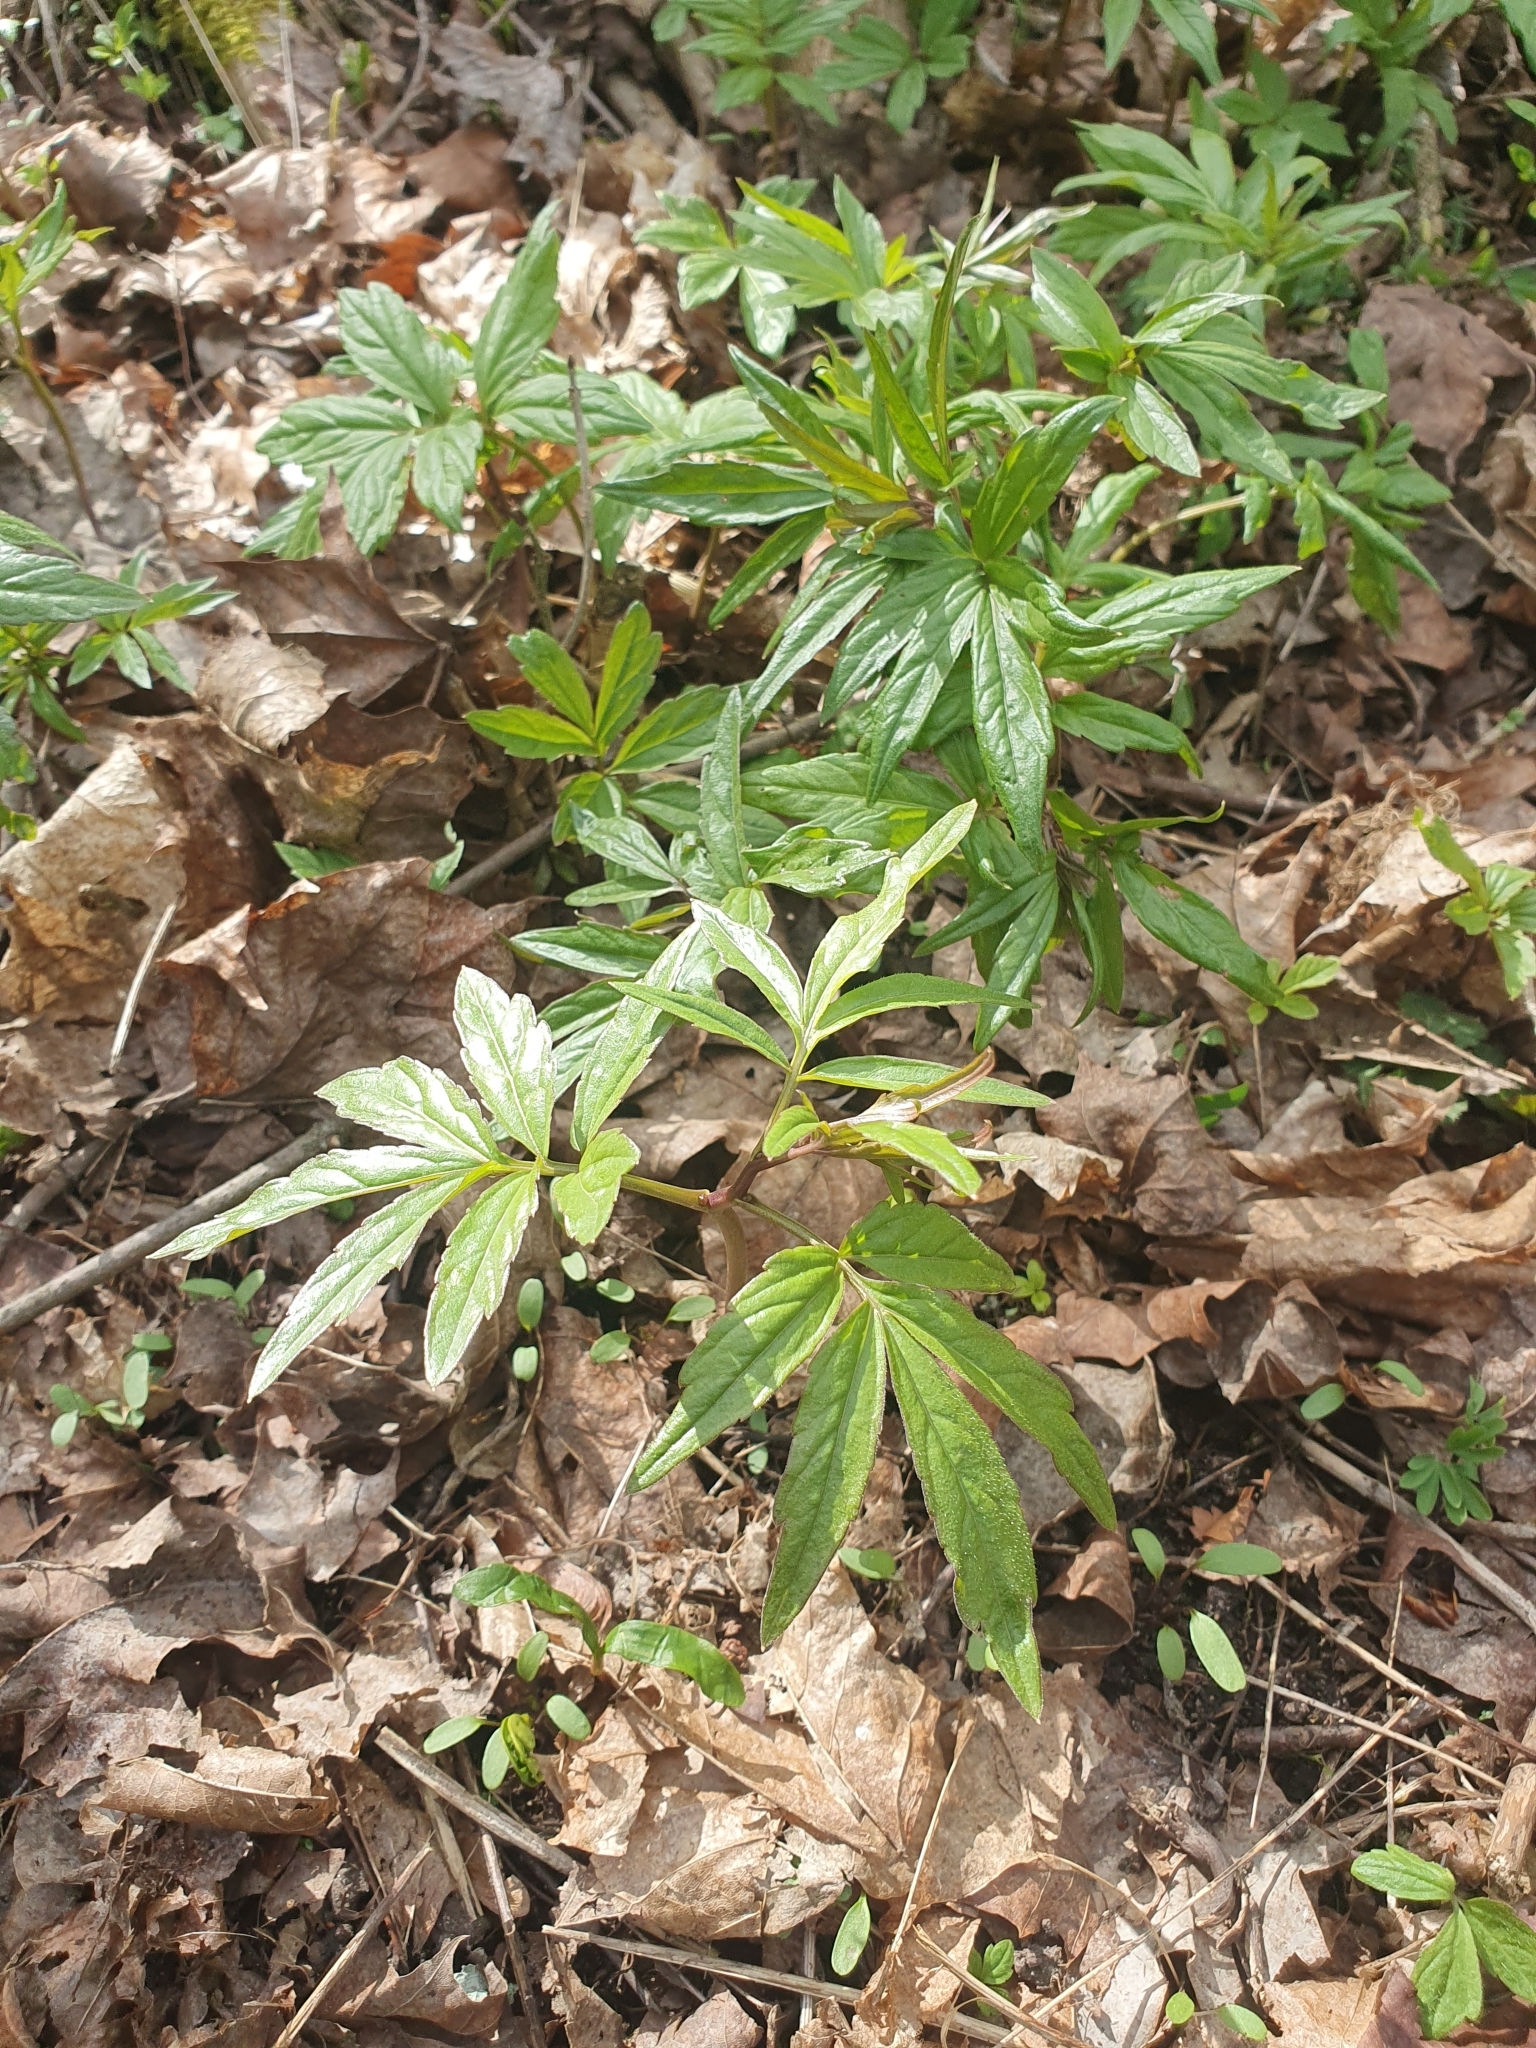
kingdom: Plantae
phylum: Tracheophyta
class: Magnoliopsida
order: Brassicales
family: Brassicaceae
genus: Cardamine
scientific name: Cardamine bulbifera
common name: Coralroot bittercress
